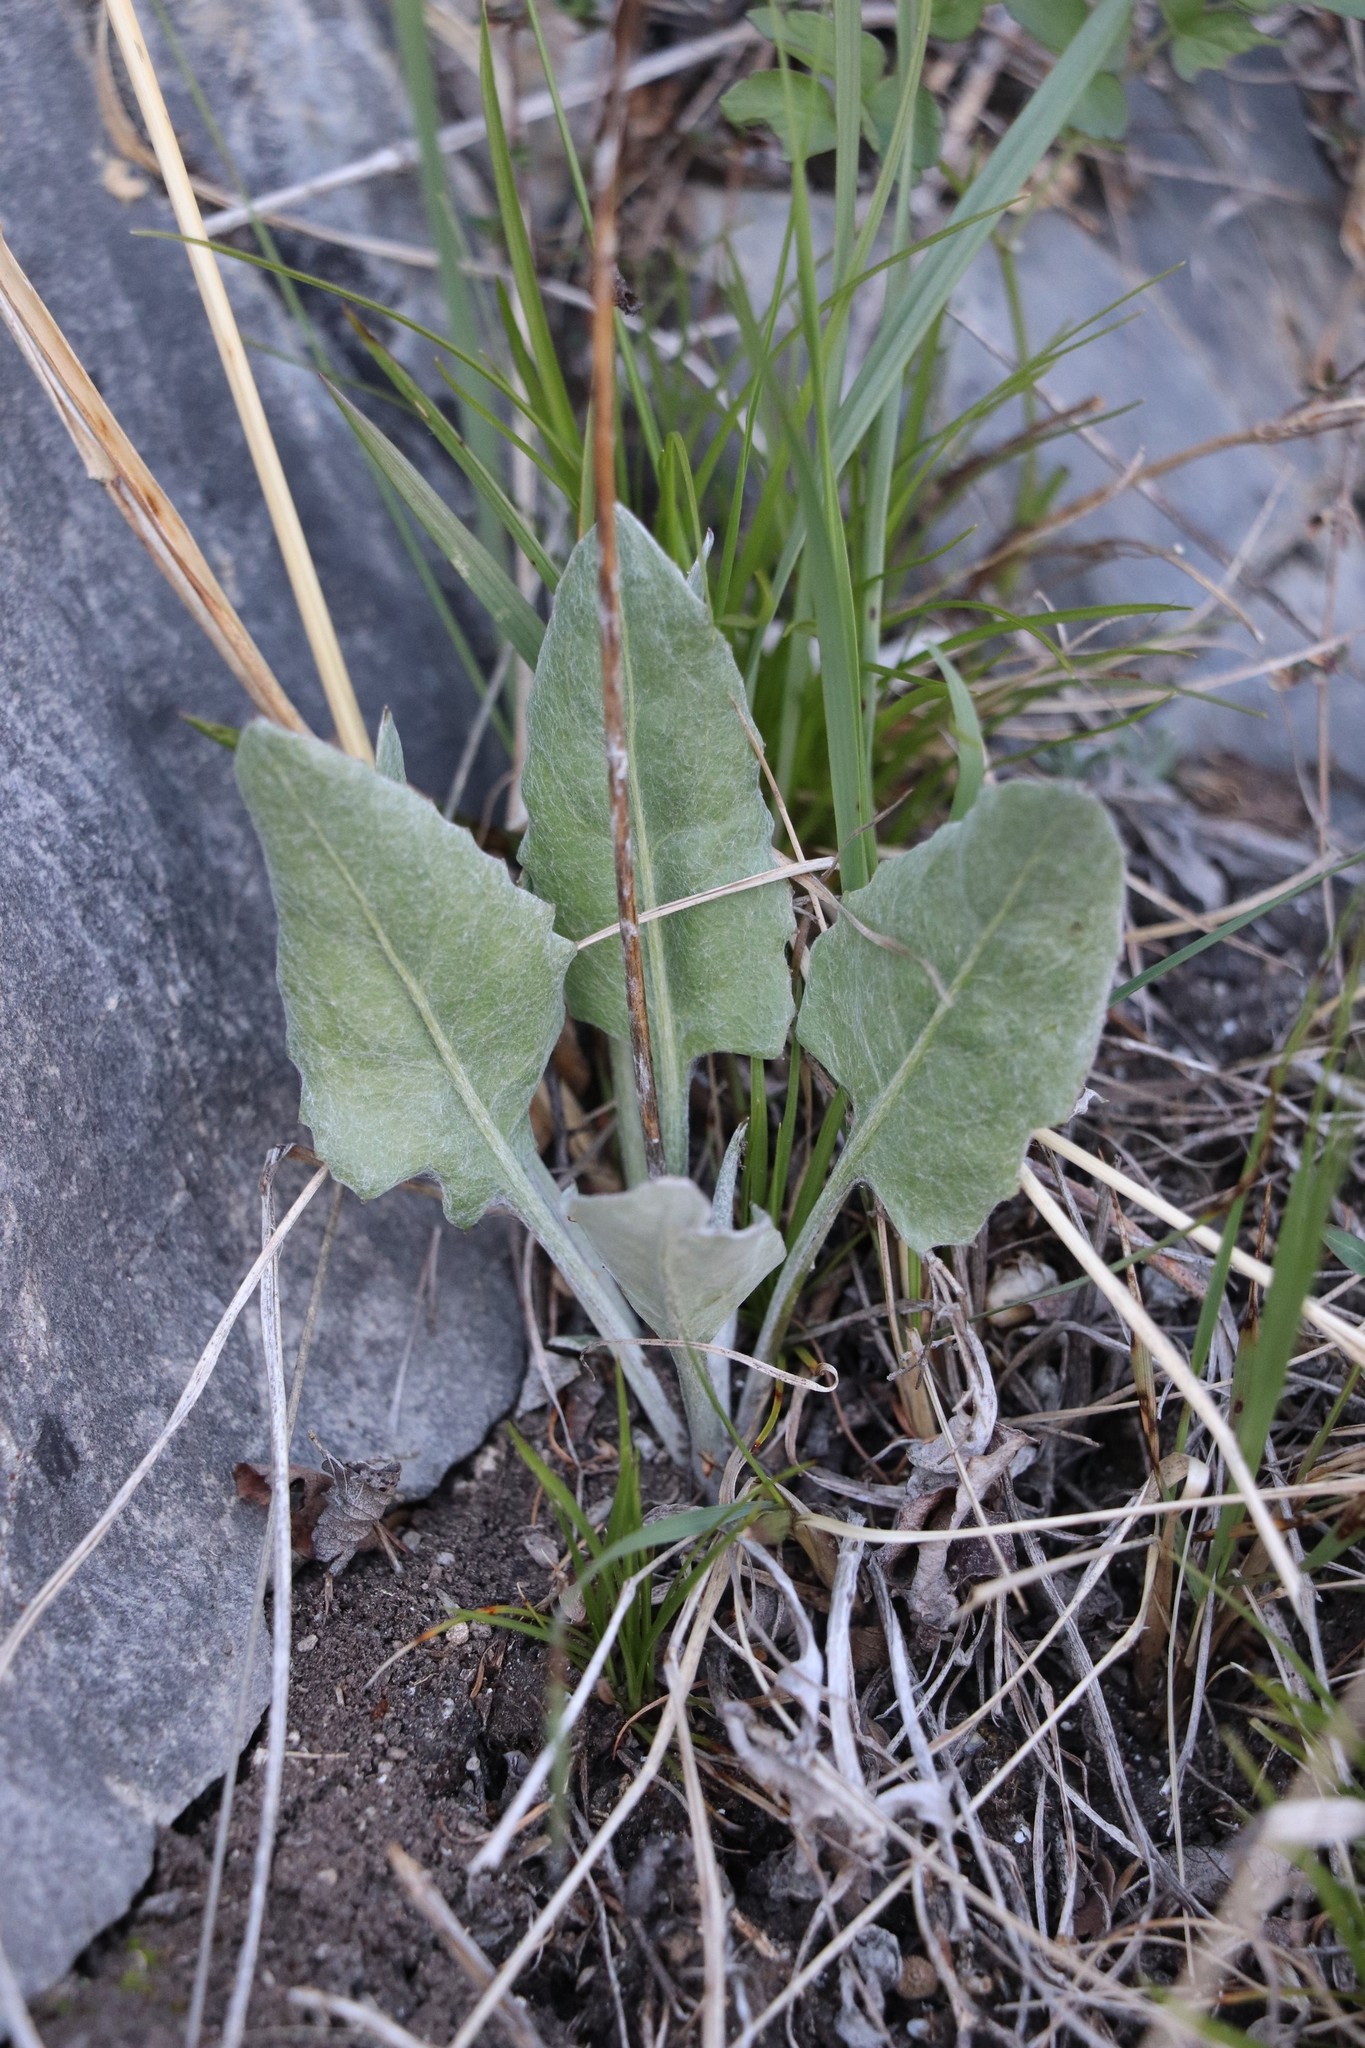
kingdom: Plantae
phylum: Tracheophyta
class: Magnoliopsida
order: Asterales
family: Asteraceae
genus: Leibnitzia
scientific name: Leibnitzia anandria
